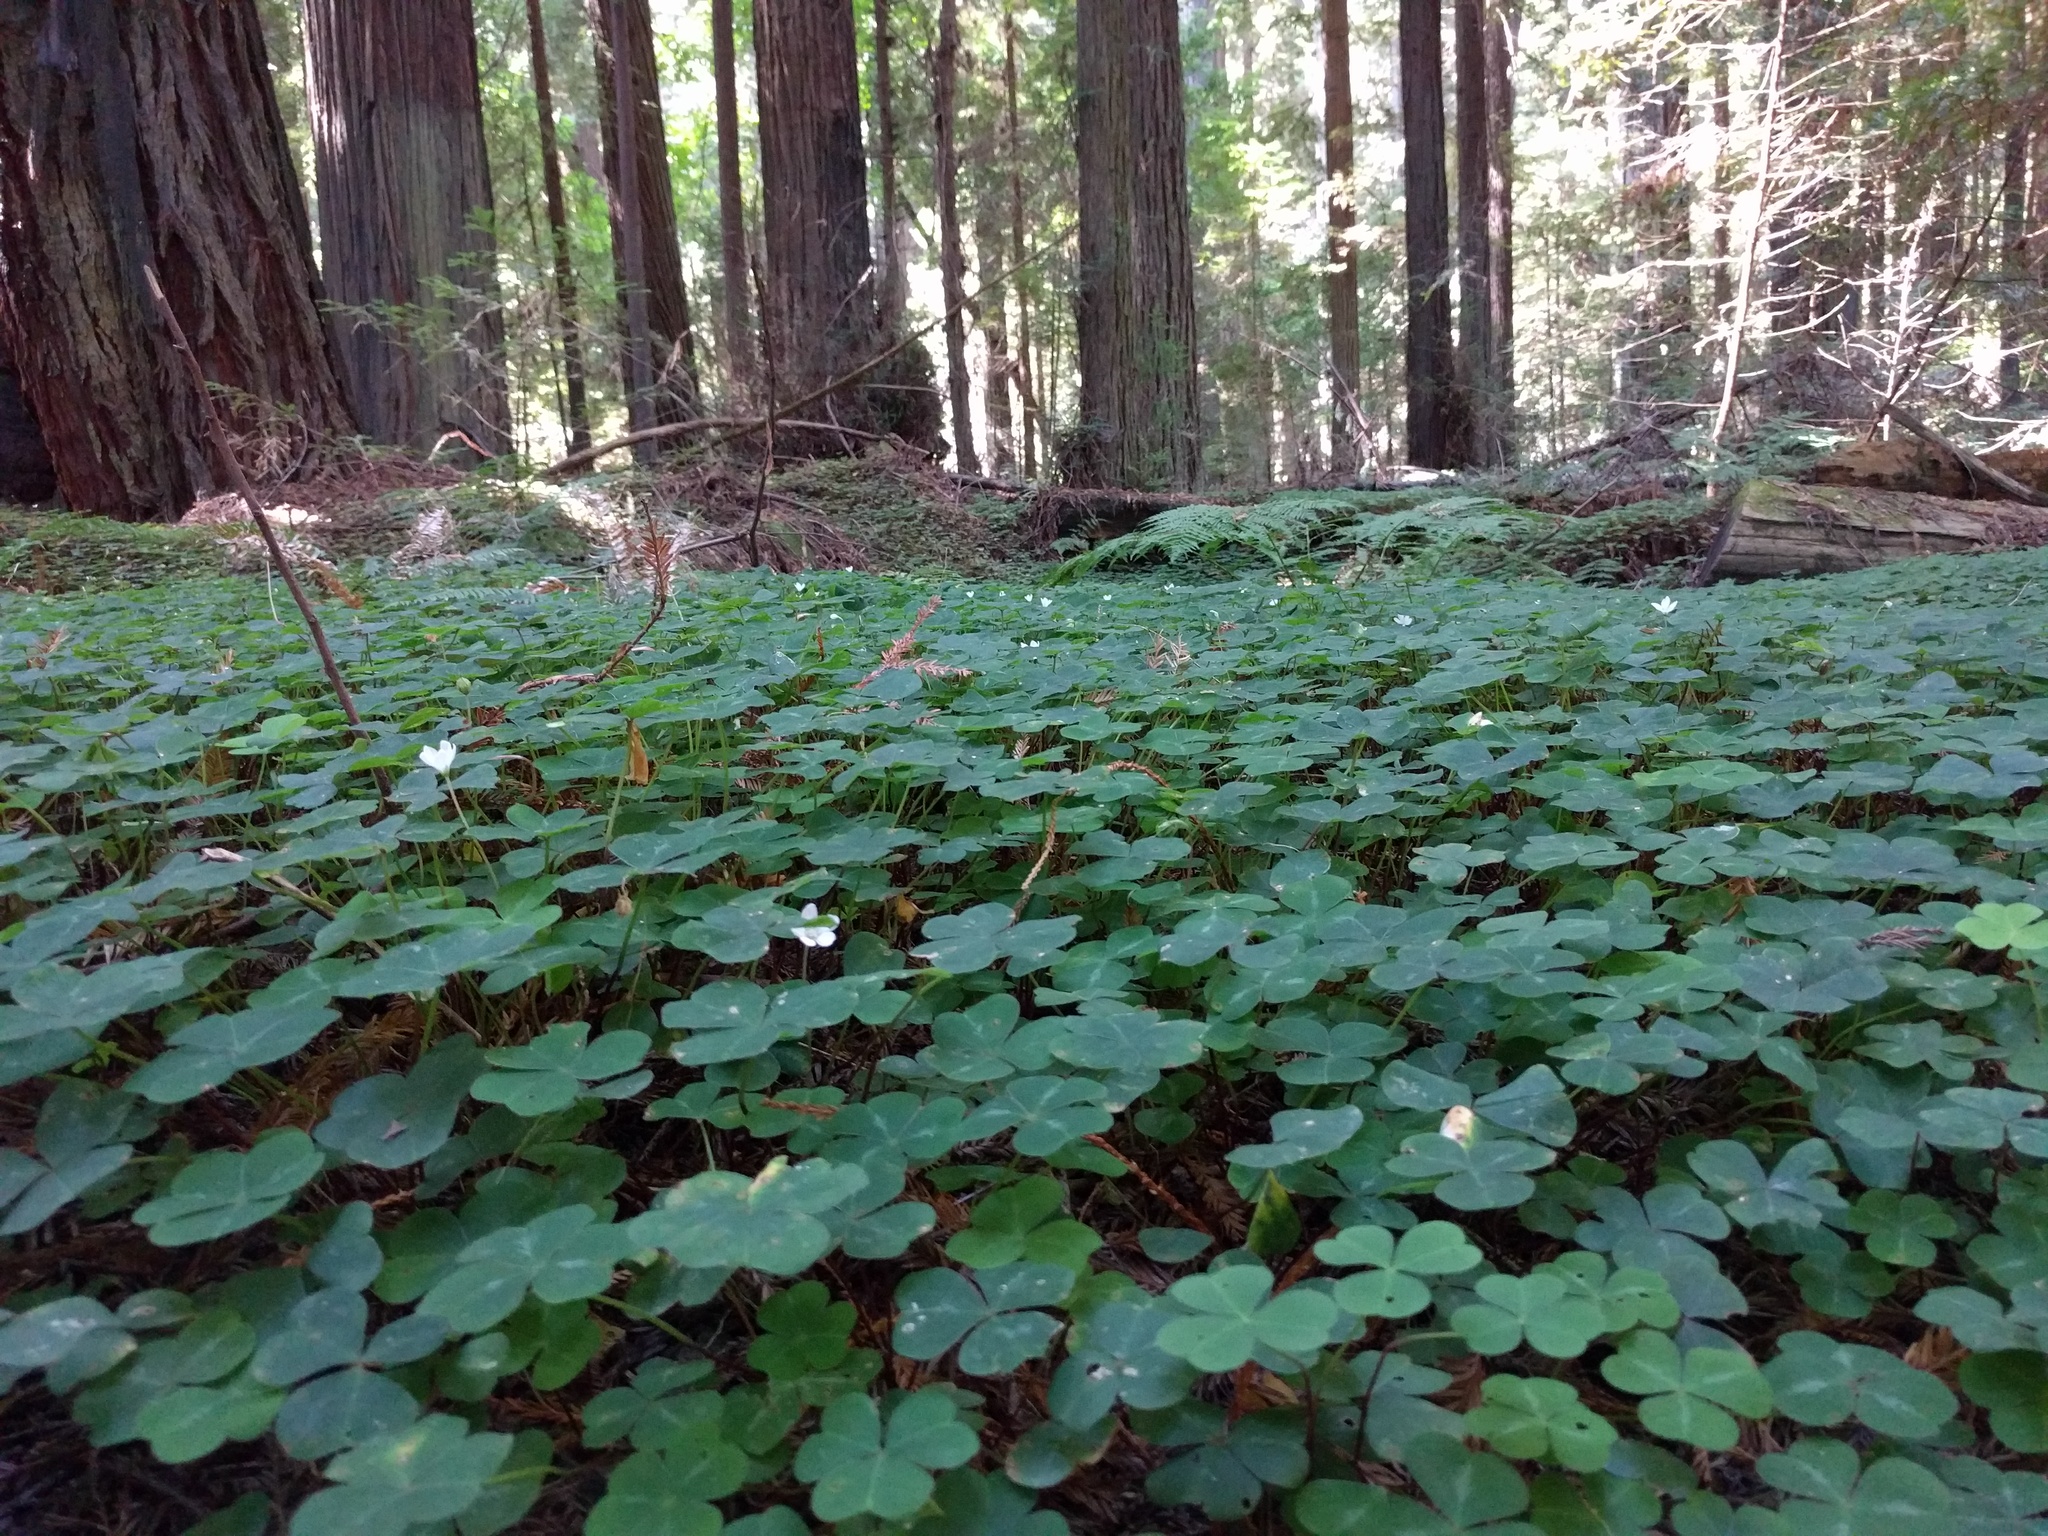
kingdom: Plantae
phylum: Tracheophyta
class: Magnoliopsida
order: Oxalidales
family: Oxalidaceae
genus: Oxalis
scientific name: Oxalis oregana
